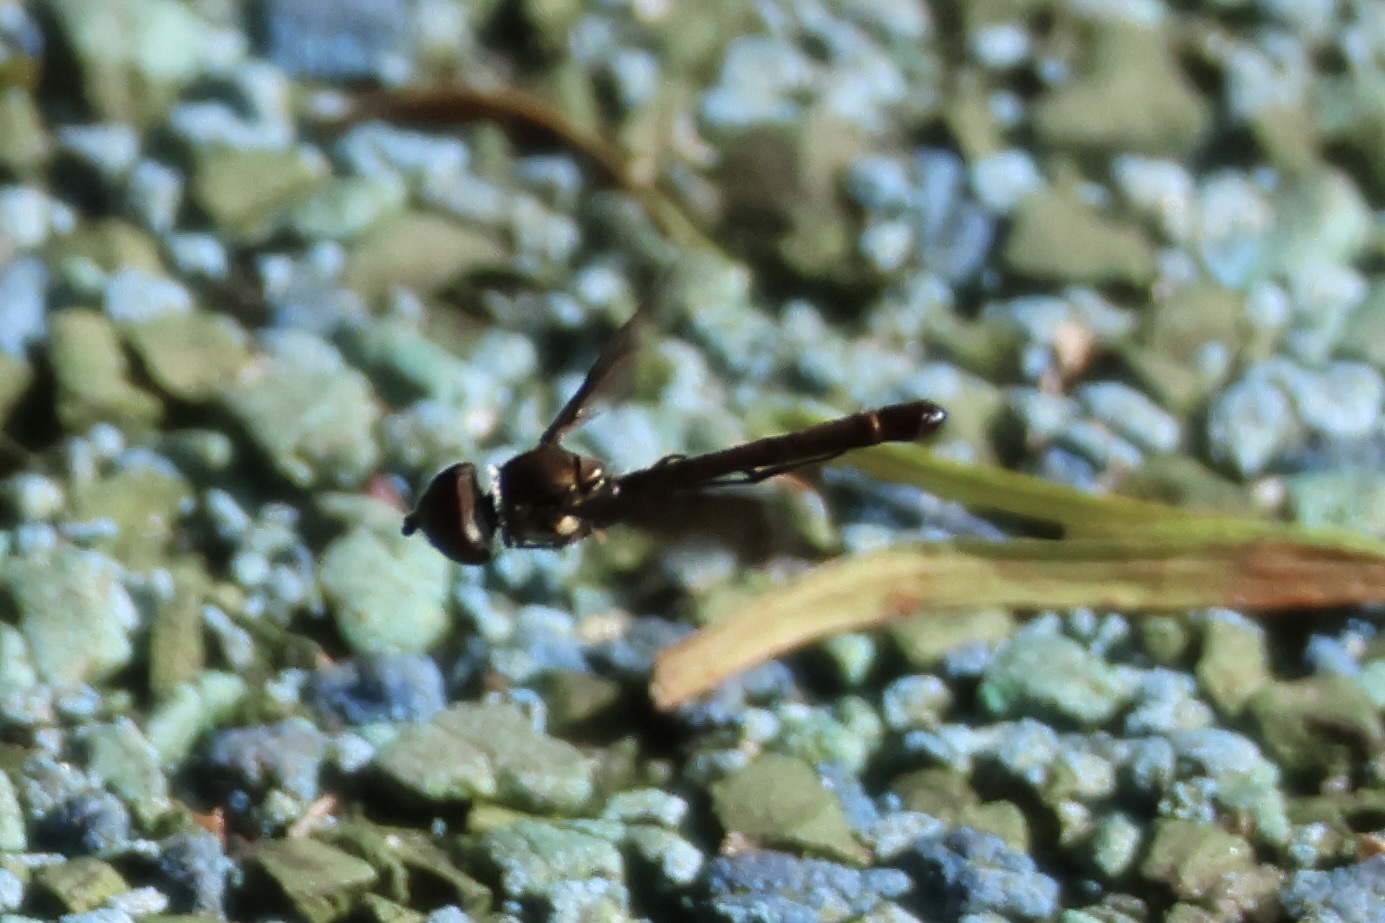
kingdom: Animalia
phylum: Arthropoda
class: Insecta
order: Diptera
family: Syrphidae
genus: Ocyptamus
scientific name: Ocyptamus fuscipennis
